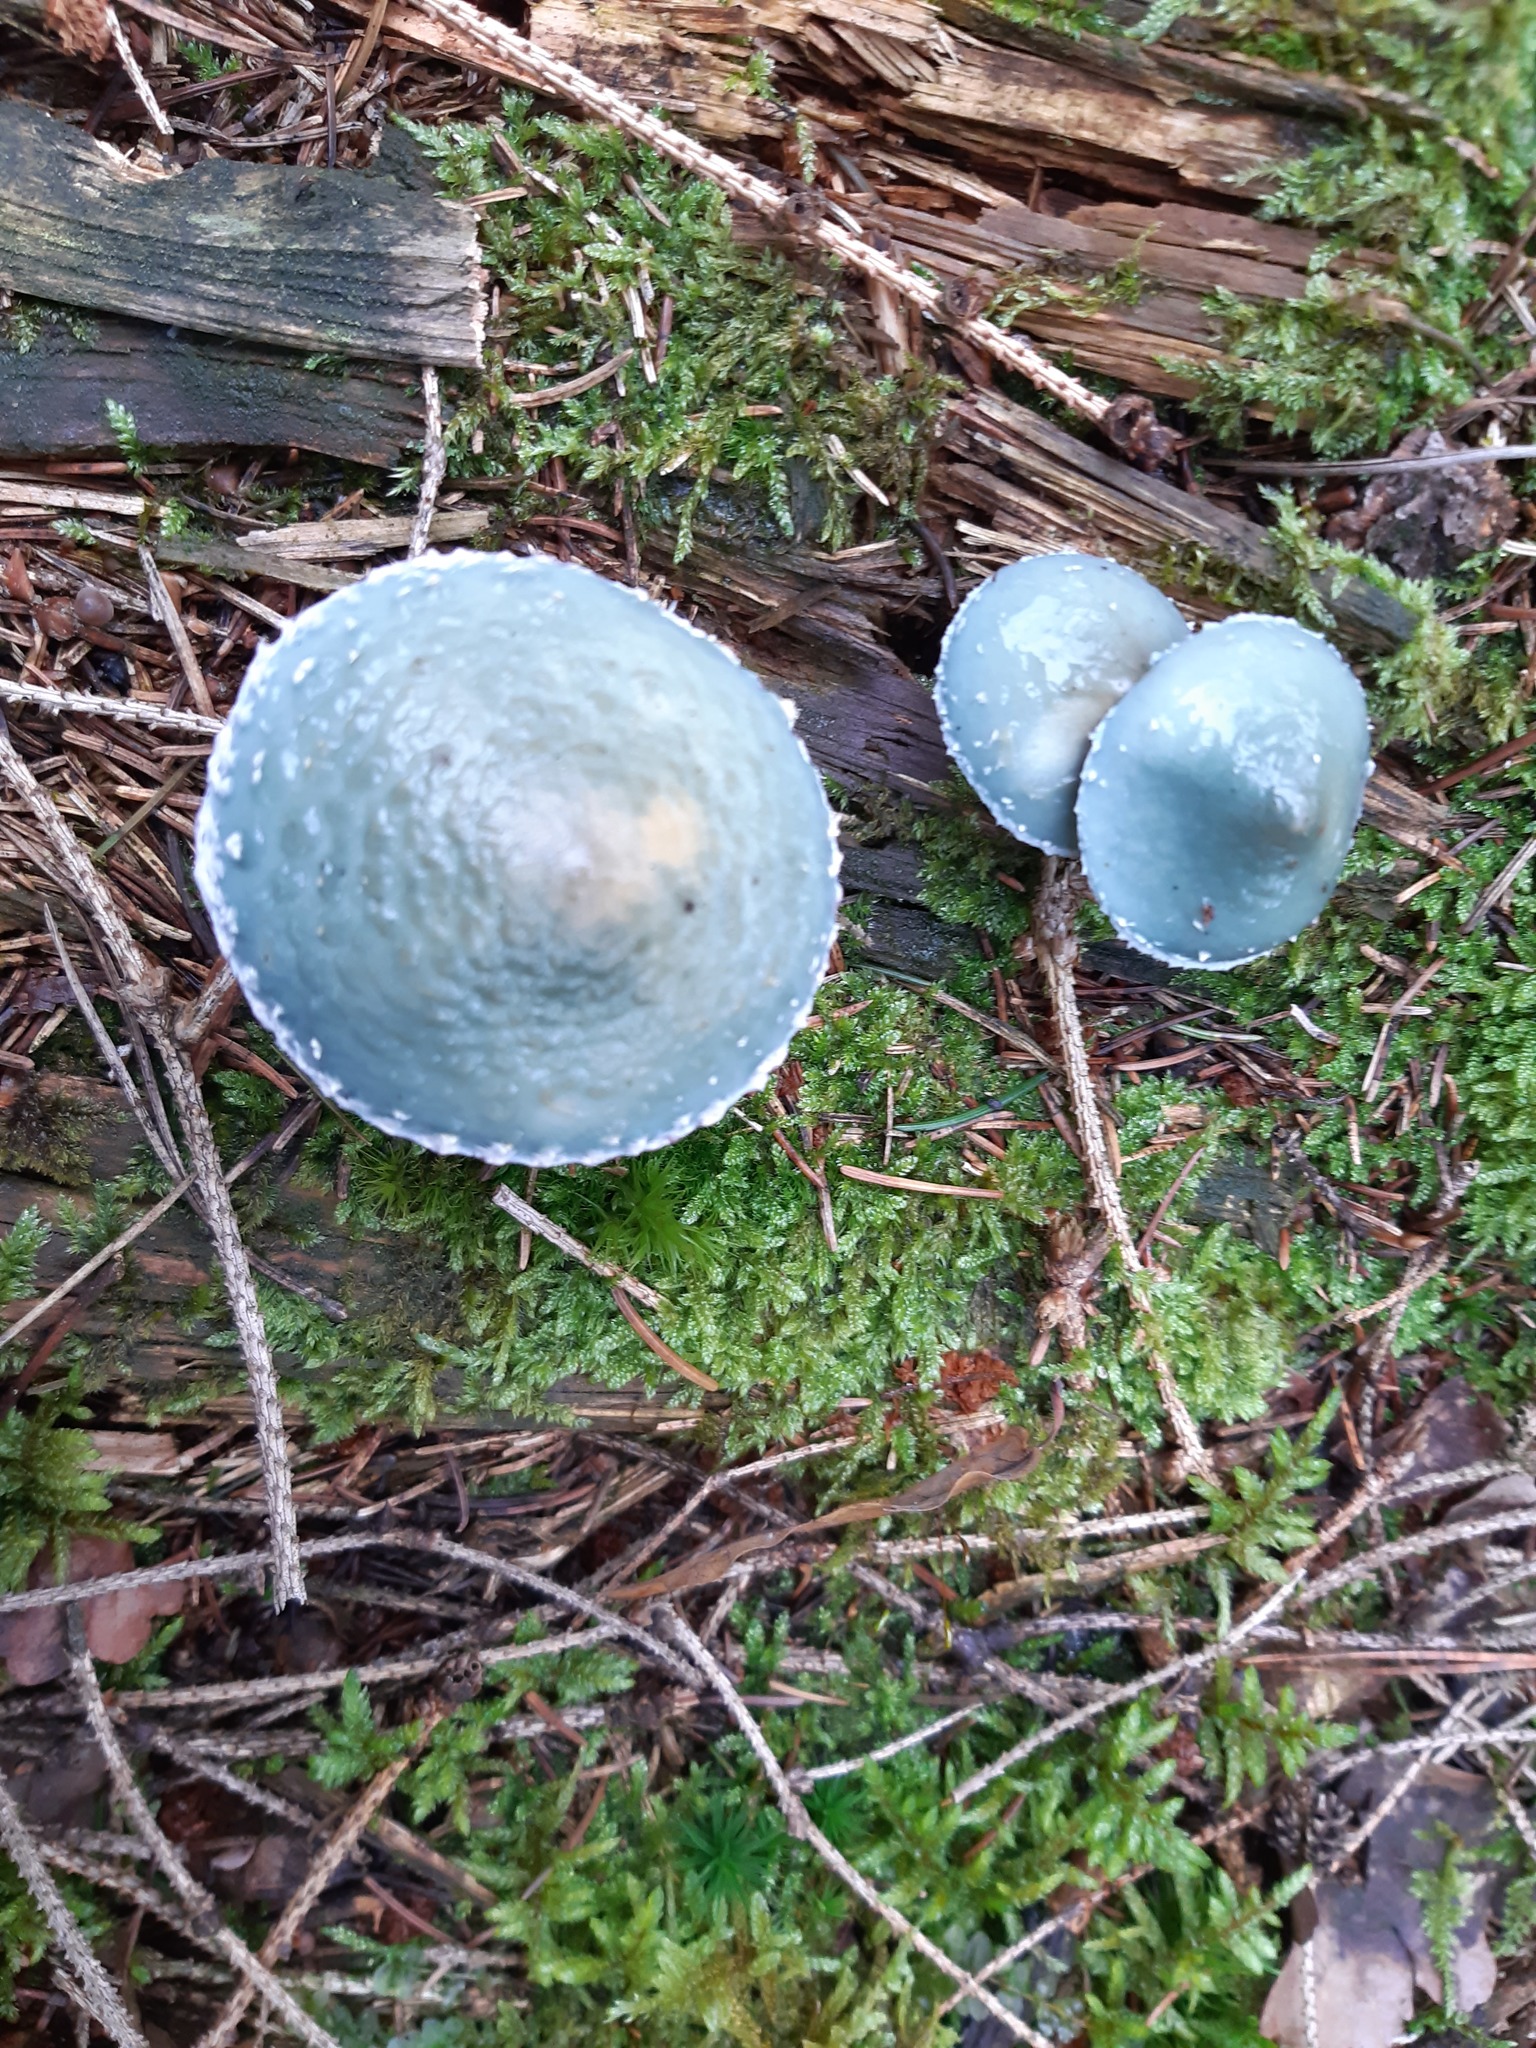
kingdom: Fungi
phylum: Basidiomycota
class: Agaricomycetes
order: Agaricales
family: Strophariaceae
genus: Stropharia
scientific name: Stropharia aeruginosa
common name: Verdigris roundhead
